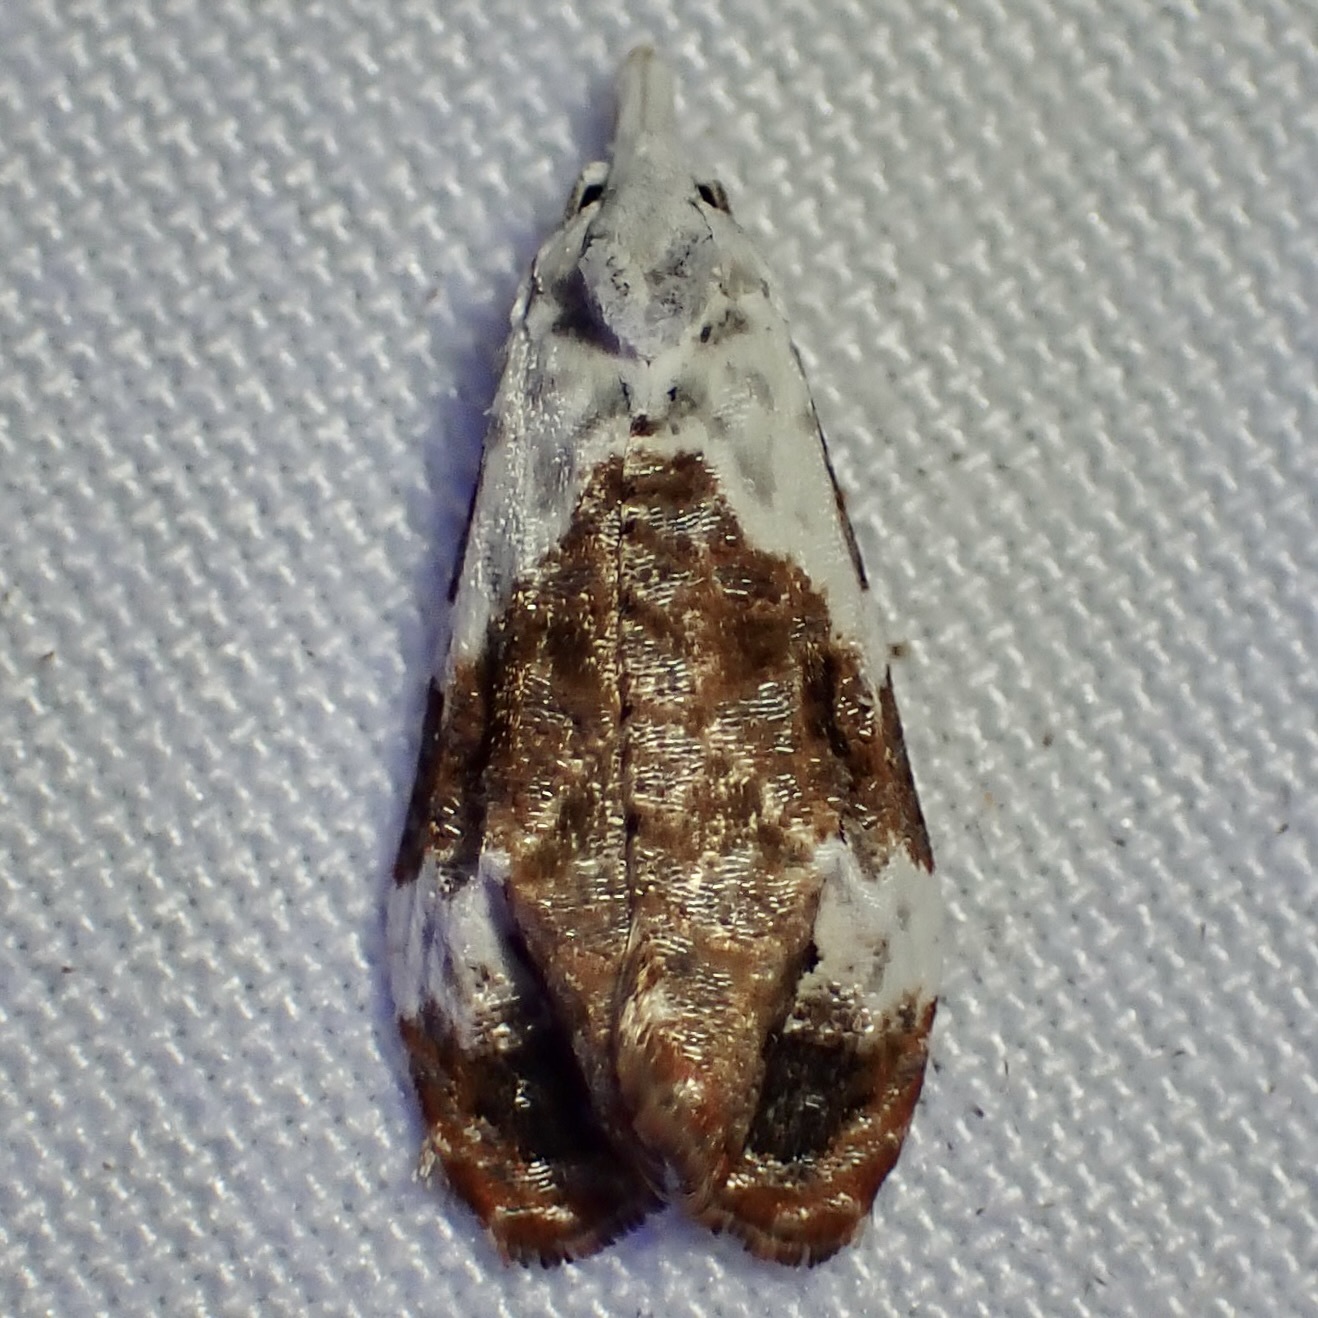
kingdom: Animalia
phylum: Arthropoda
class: Insecta
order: Lepidoptera
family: Tortricidae
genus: Phtheochroa
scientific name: Phtheochroa huachucana
